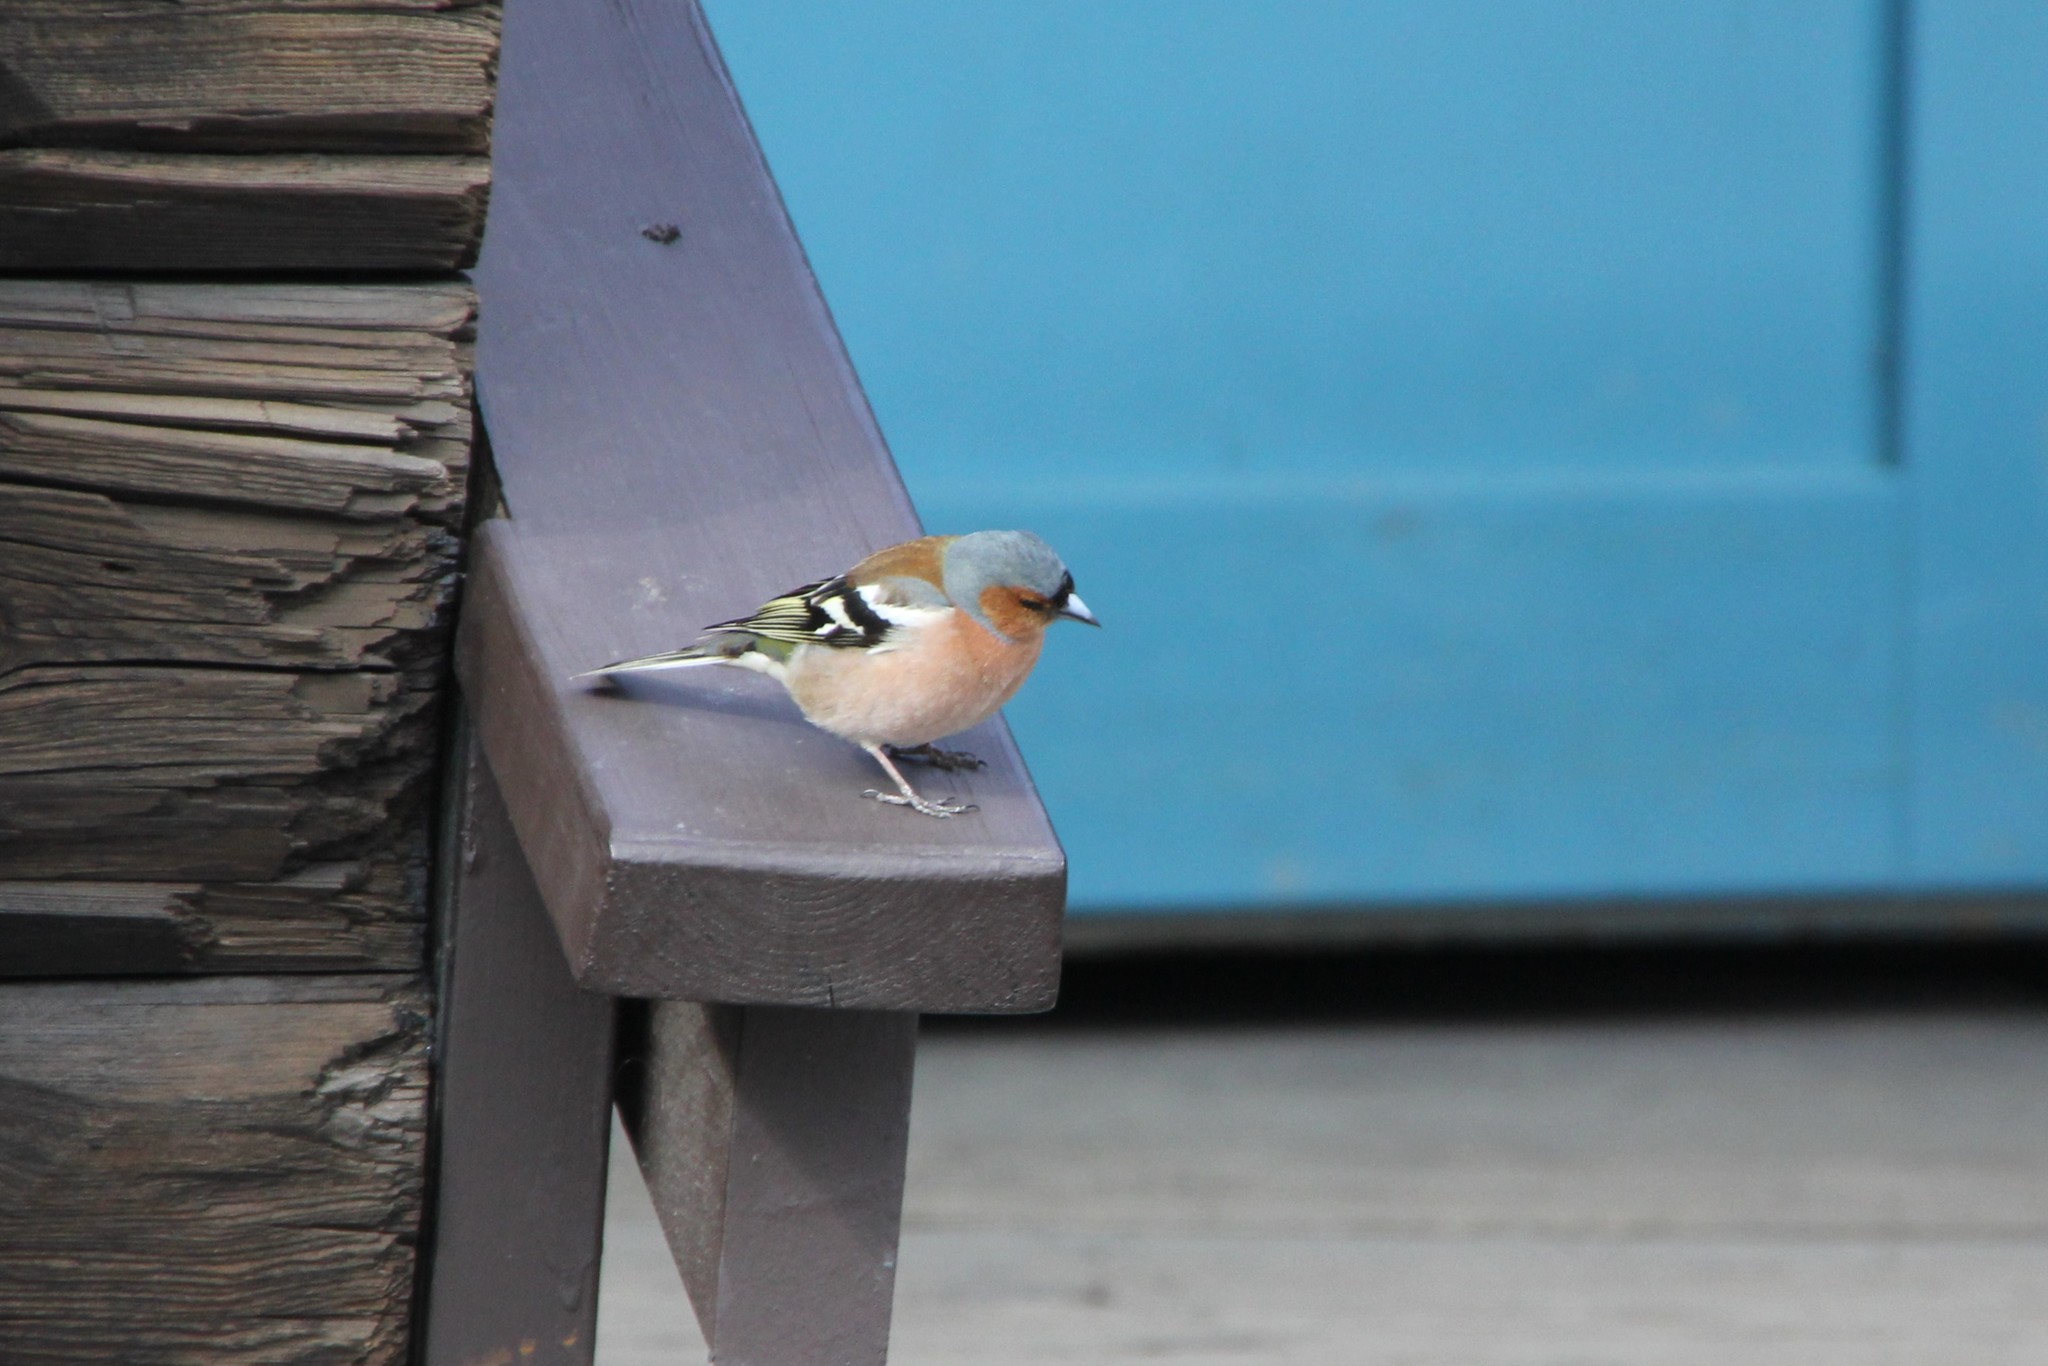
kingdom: Animalia
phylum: Chordata
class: Aves
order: Passeriformes
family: Fringillidae
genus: Fringilla
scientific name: Fringilla coelebs
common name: Common chaffinch
